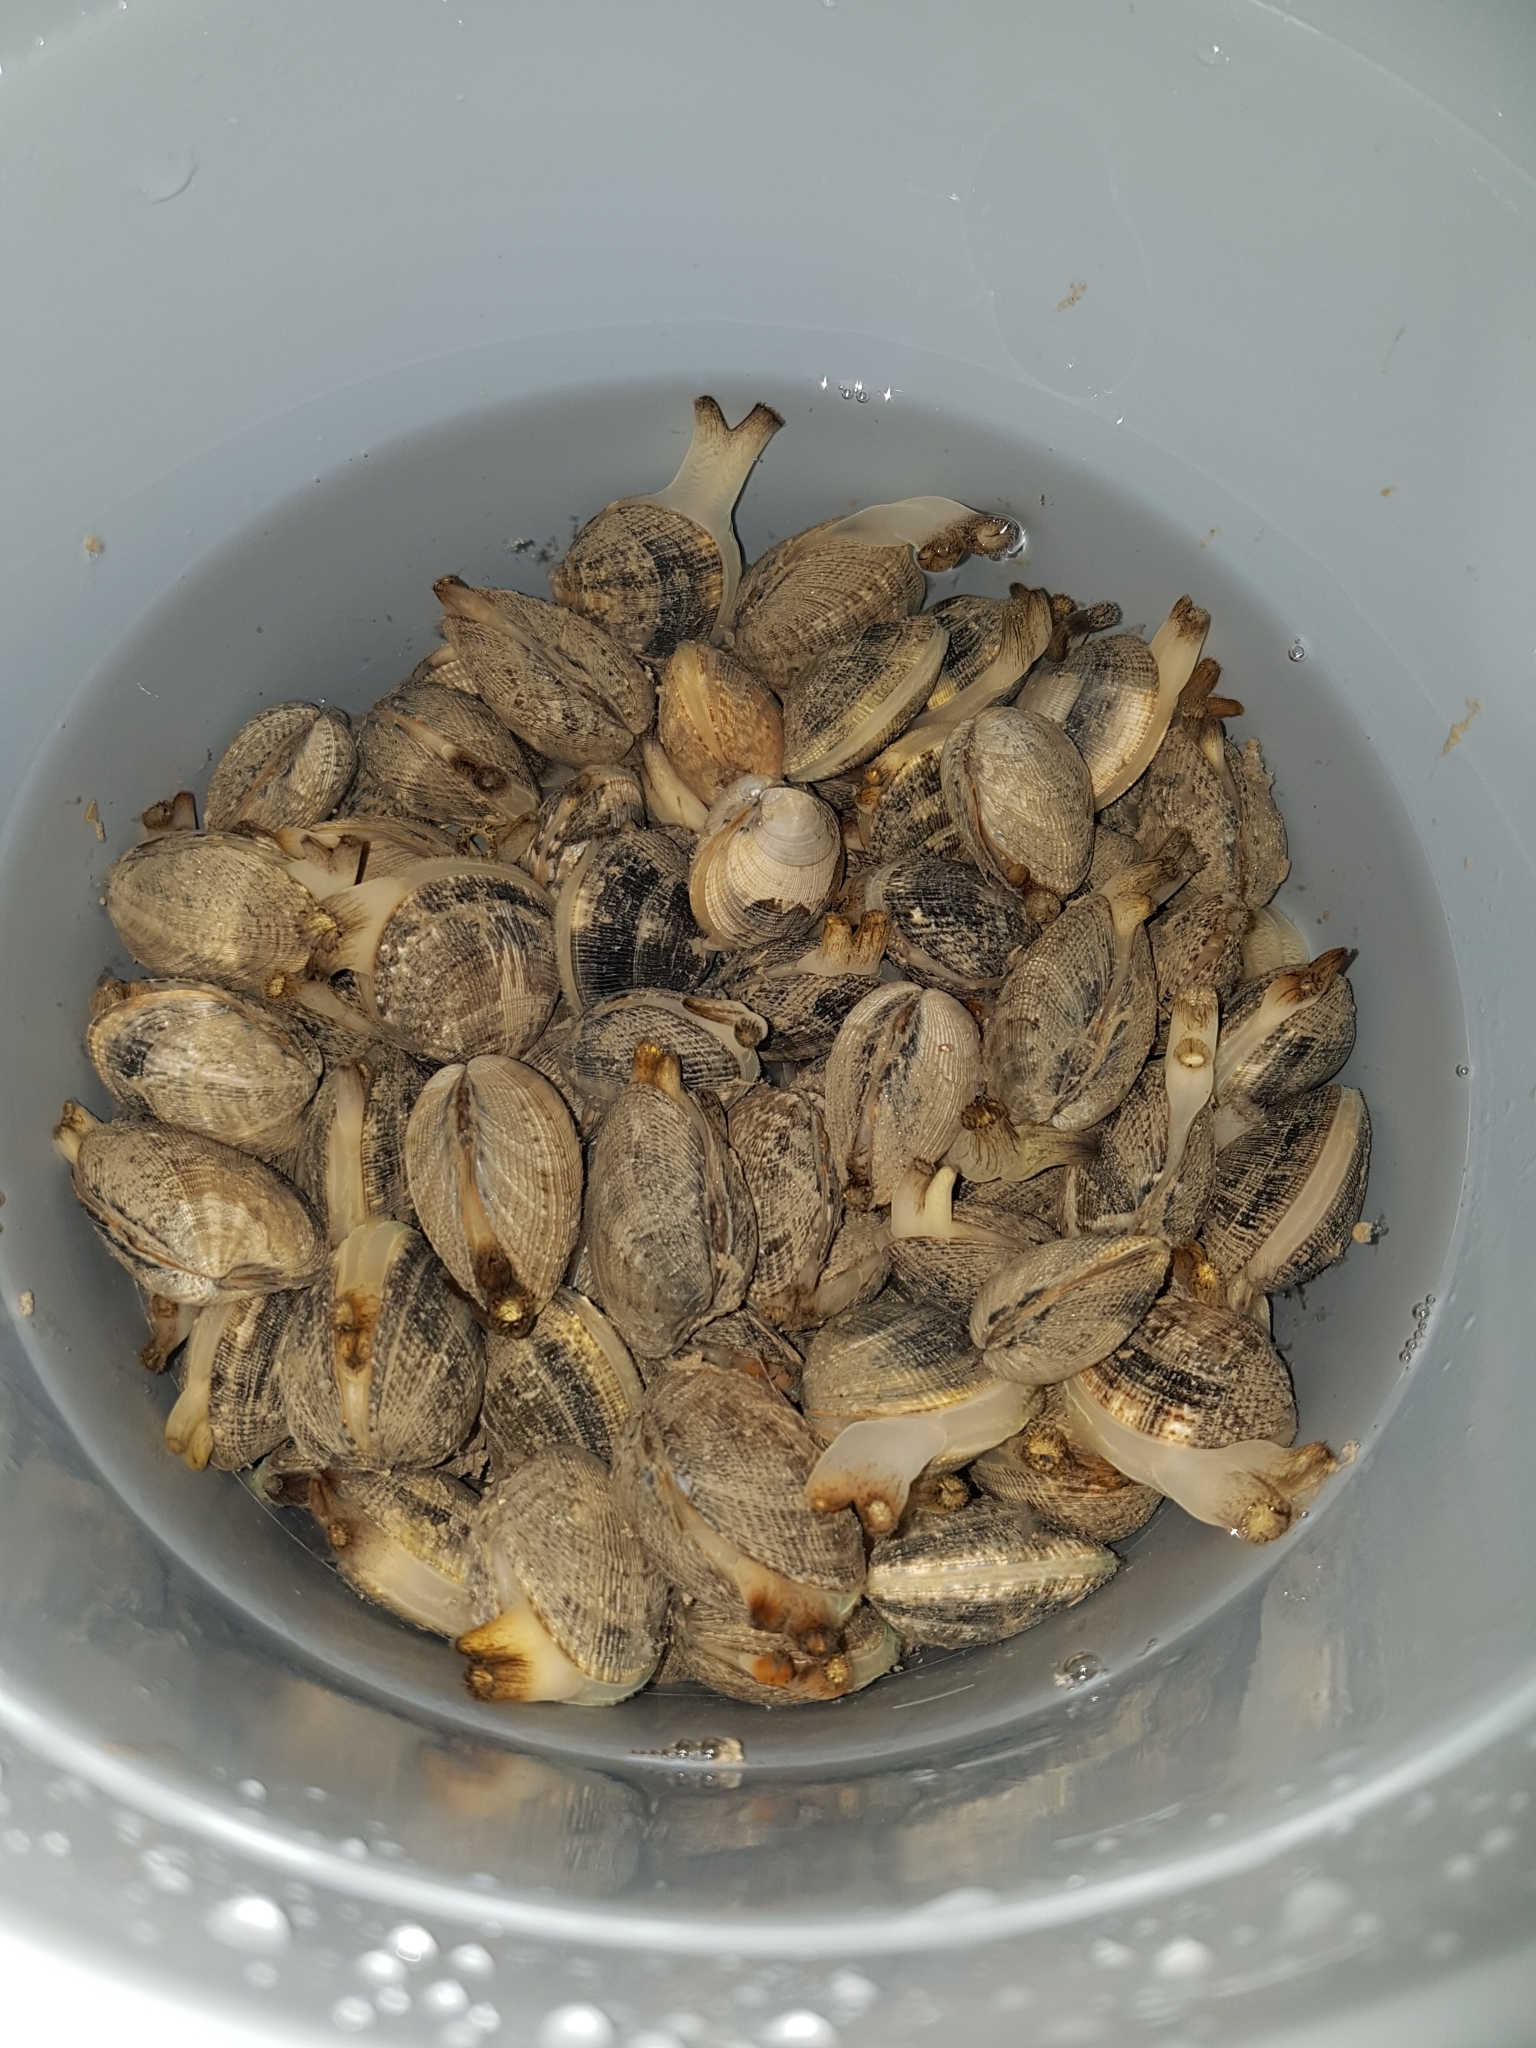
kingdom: Animalia
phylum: Mollusca
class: Bivalvia
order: Venerida
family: Veneridae
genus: Ruditapes
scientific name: Ruditapes philippinarum
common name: Manila clam
